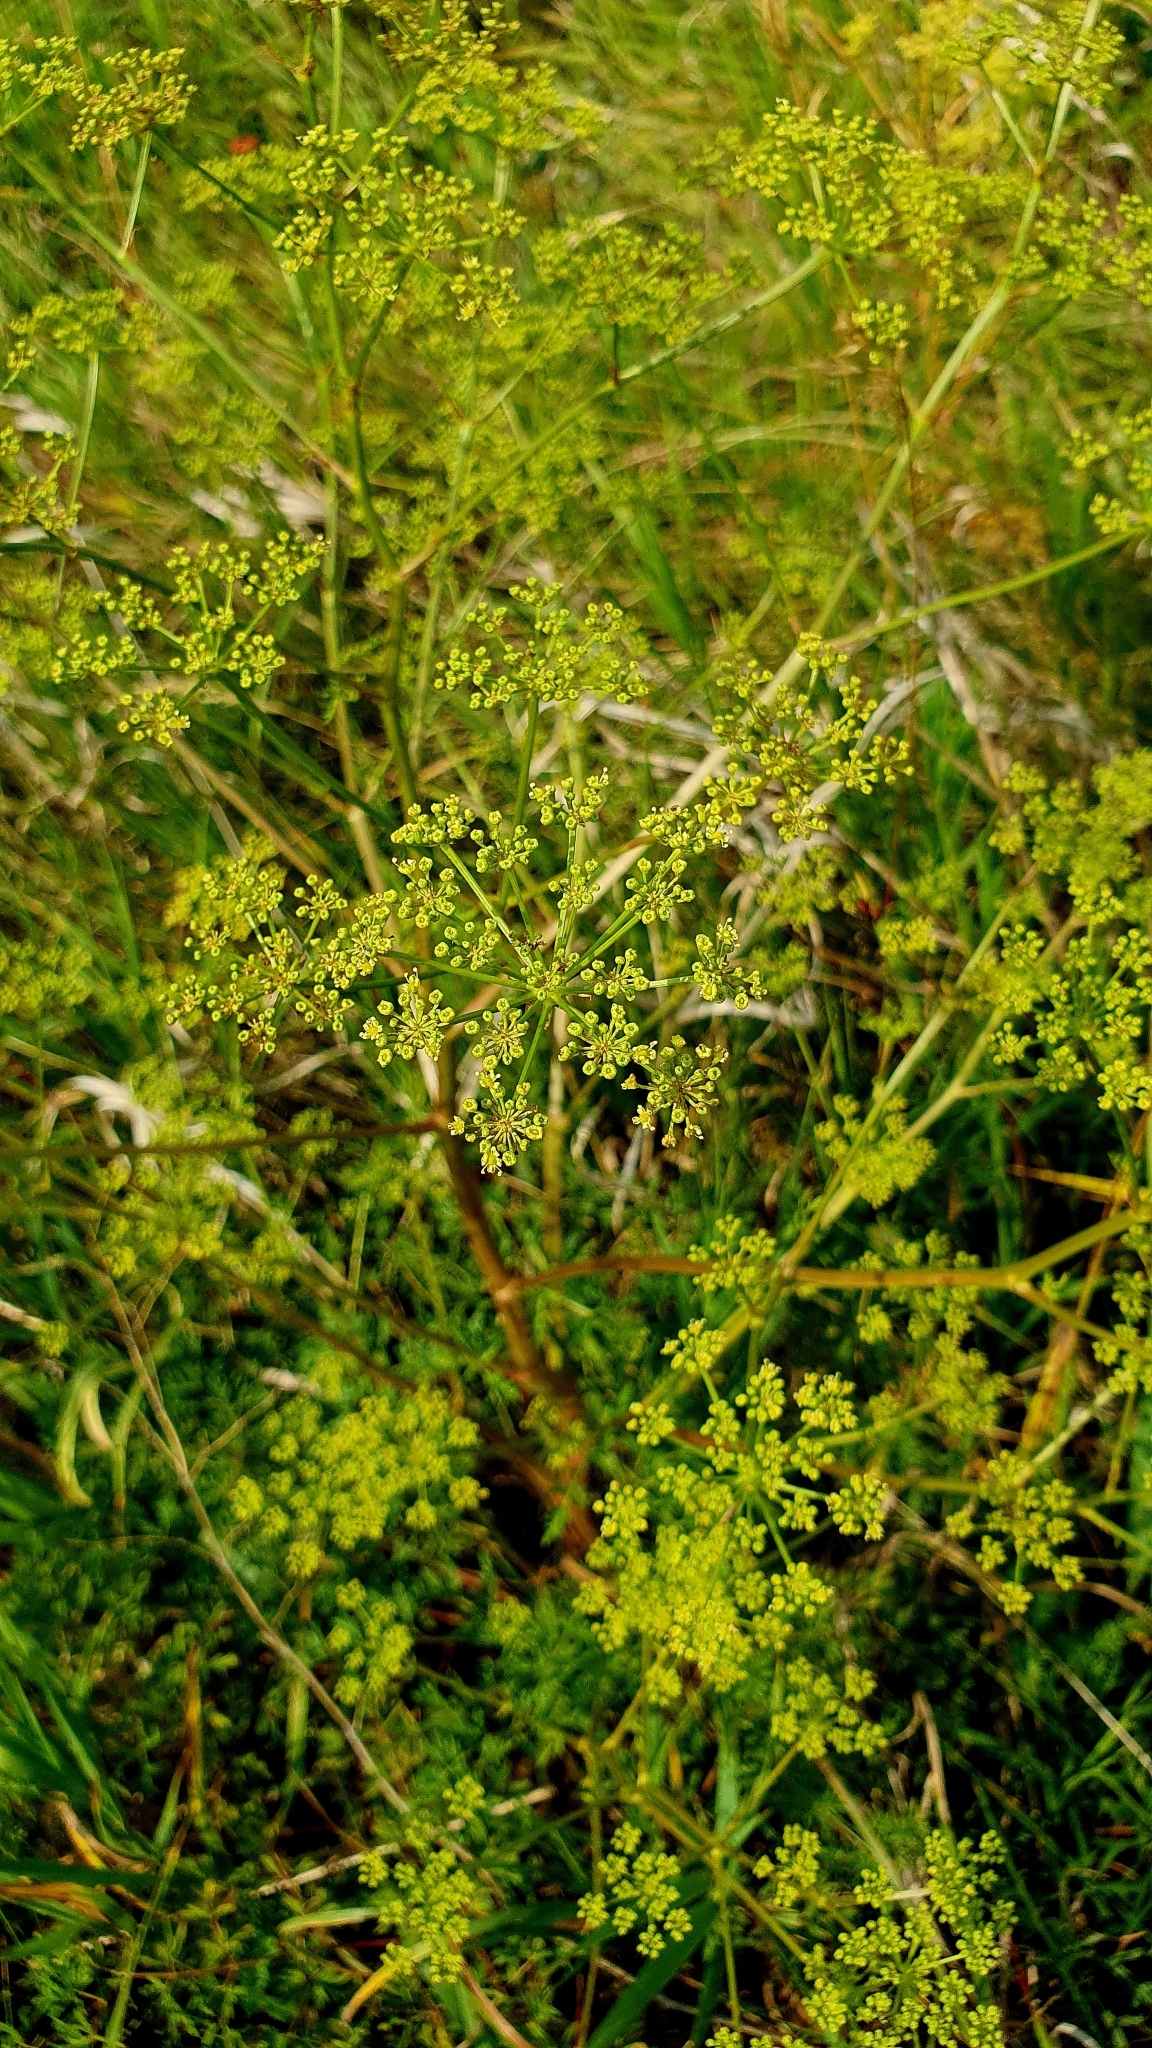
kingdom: Plantae
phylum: Tracheophyta
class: Magnoliopsida
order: Apiales
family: Apiaceae
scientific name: Apiaceae
